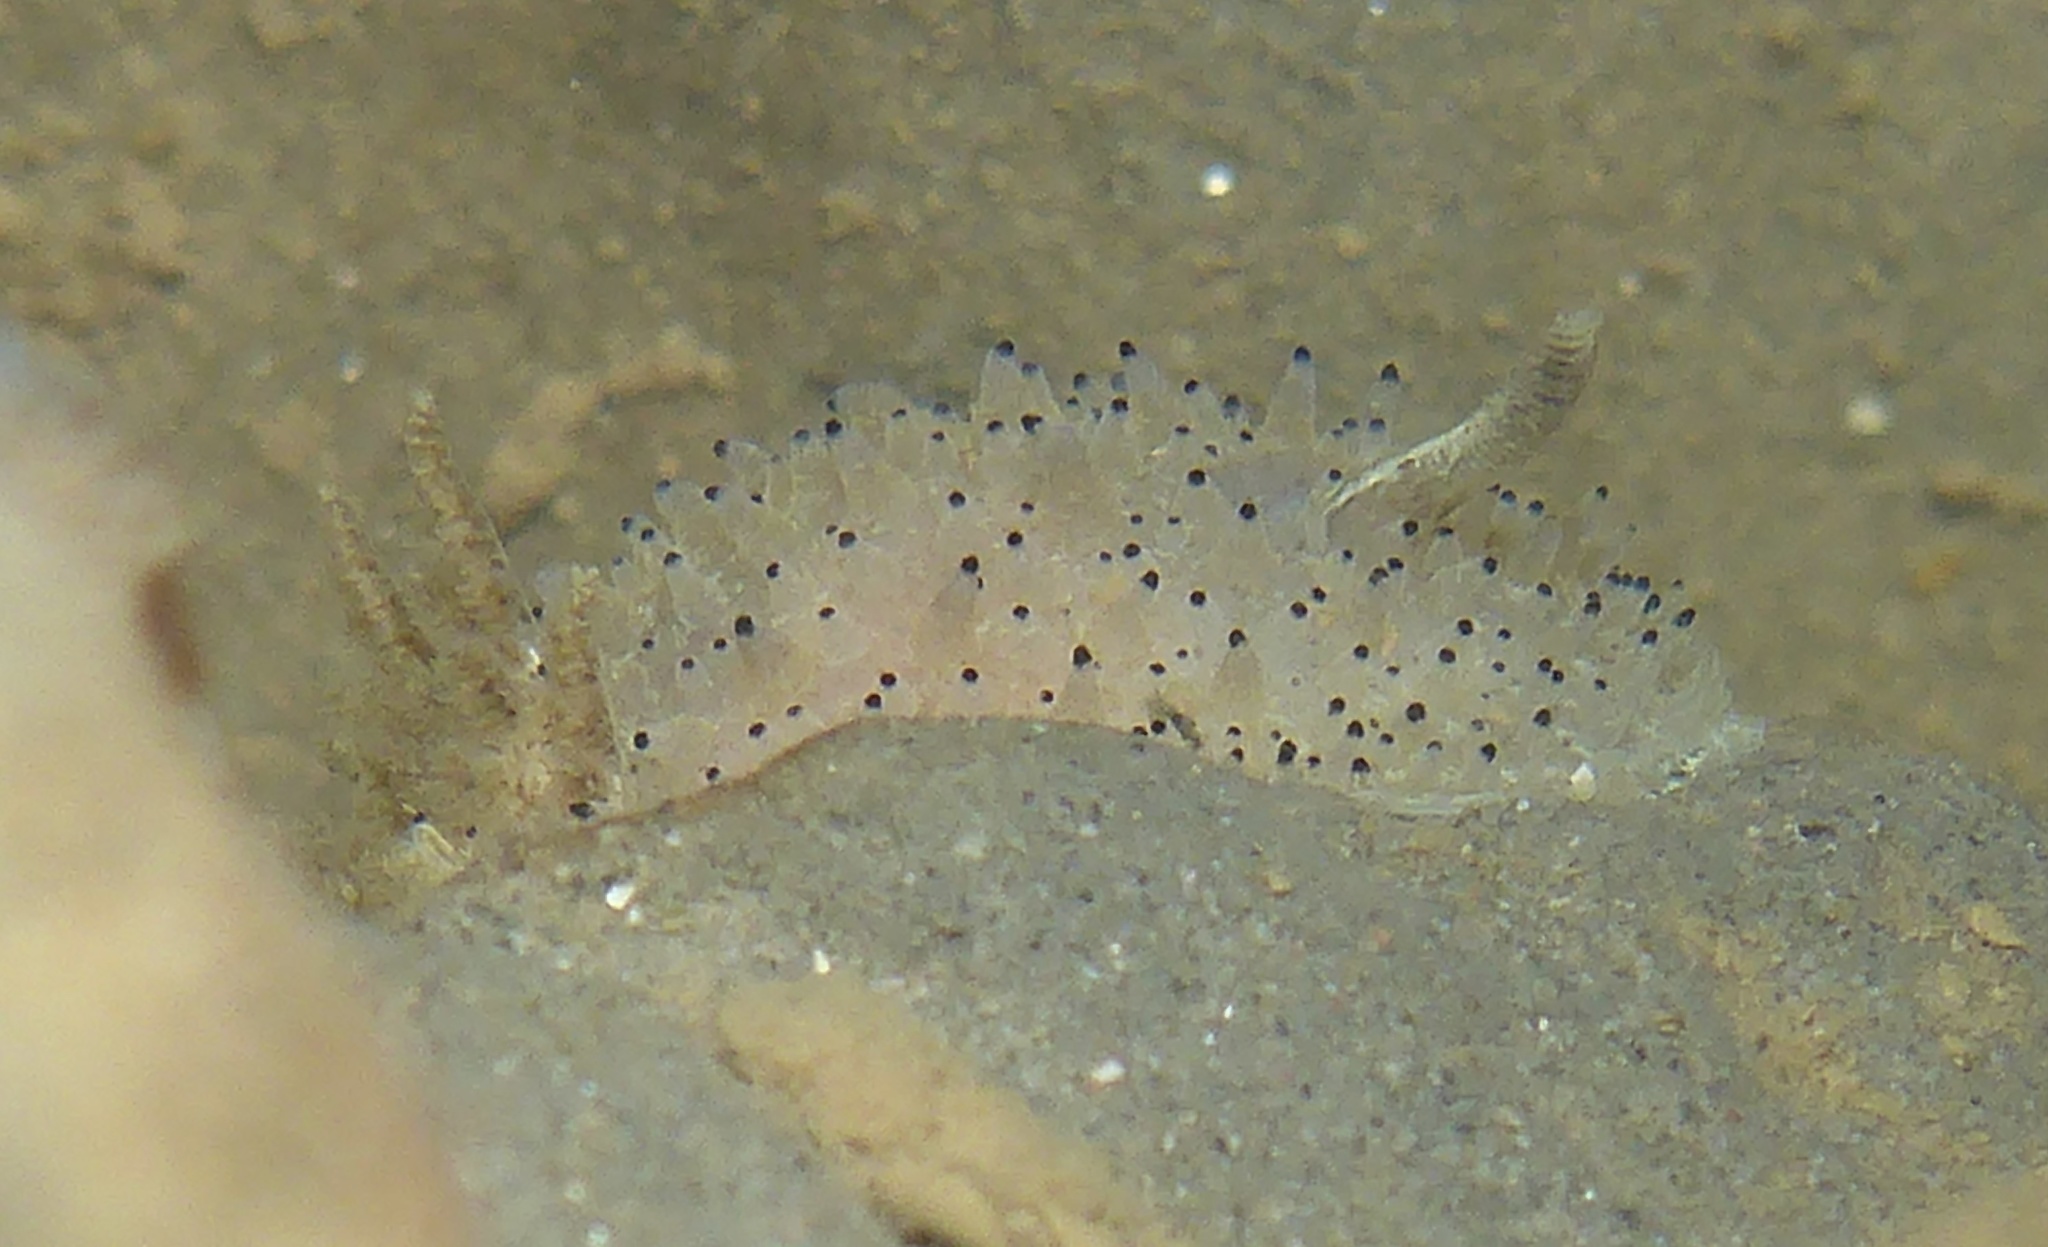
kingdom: Animalia
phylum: Mollusca
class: Gastropoda
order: Nudibranchia
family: Onchidorididae
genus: Acanthodoris
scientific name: Acanthodoris rhodoceras
